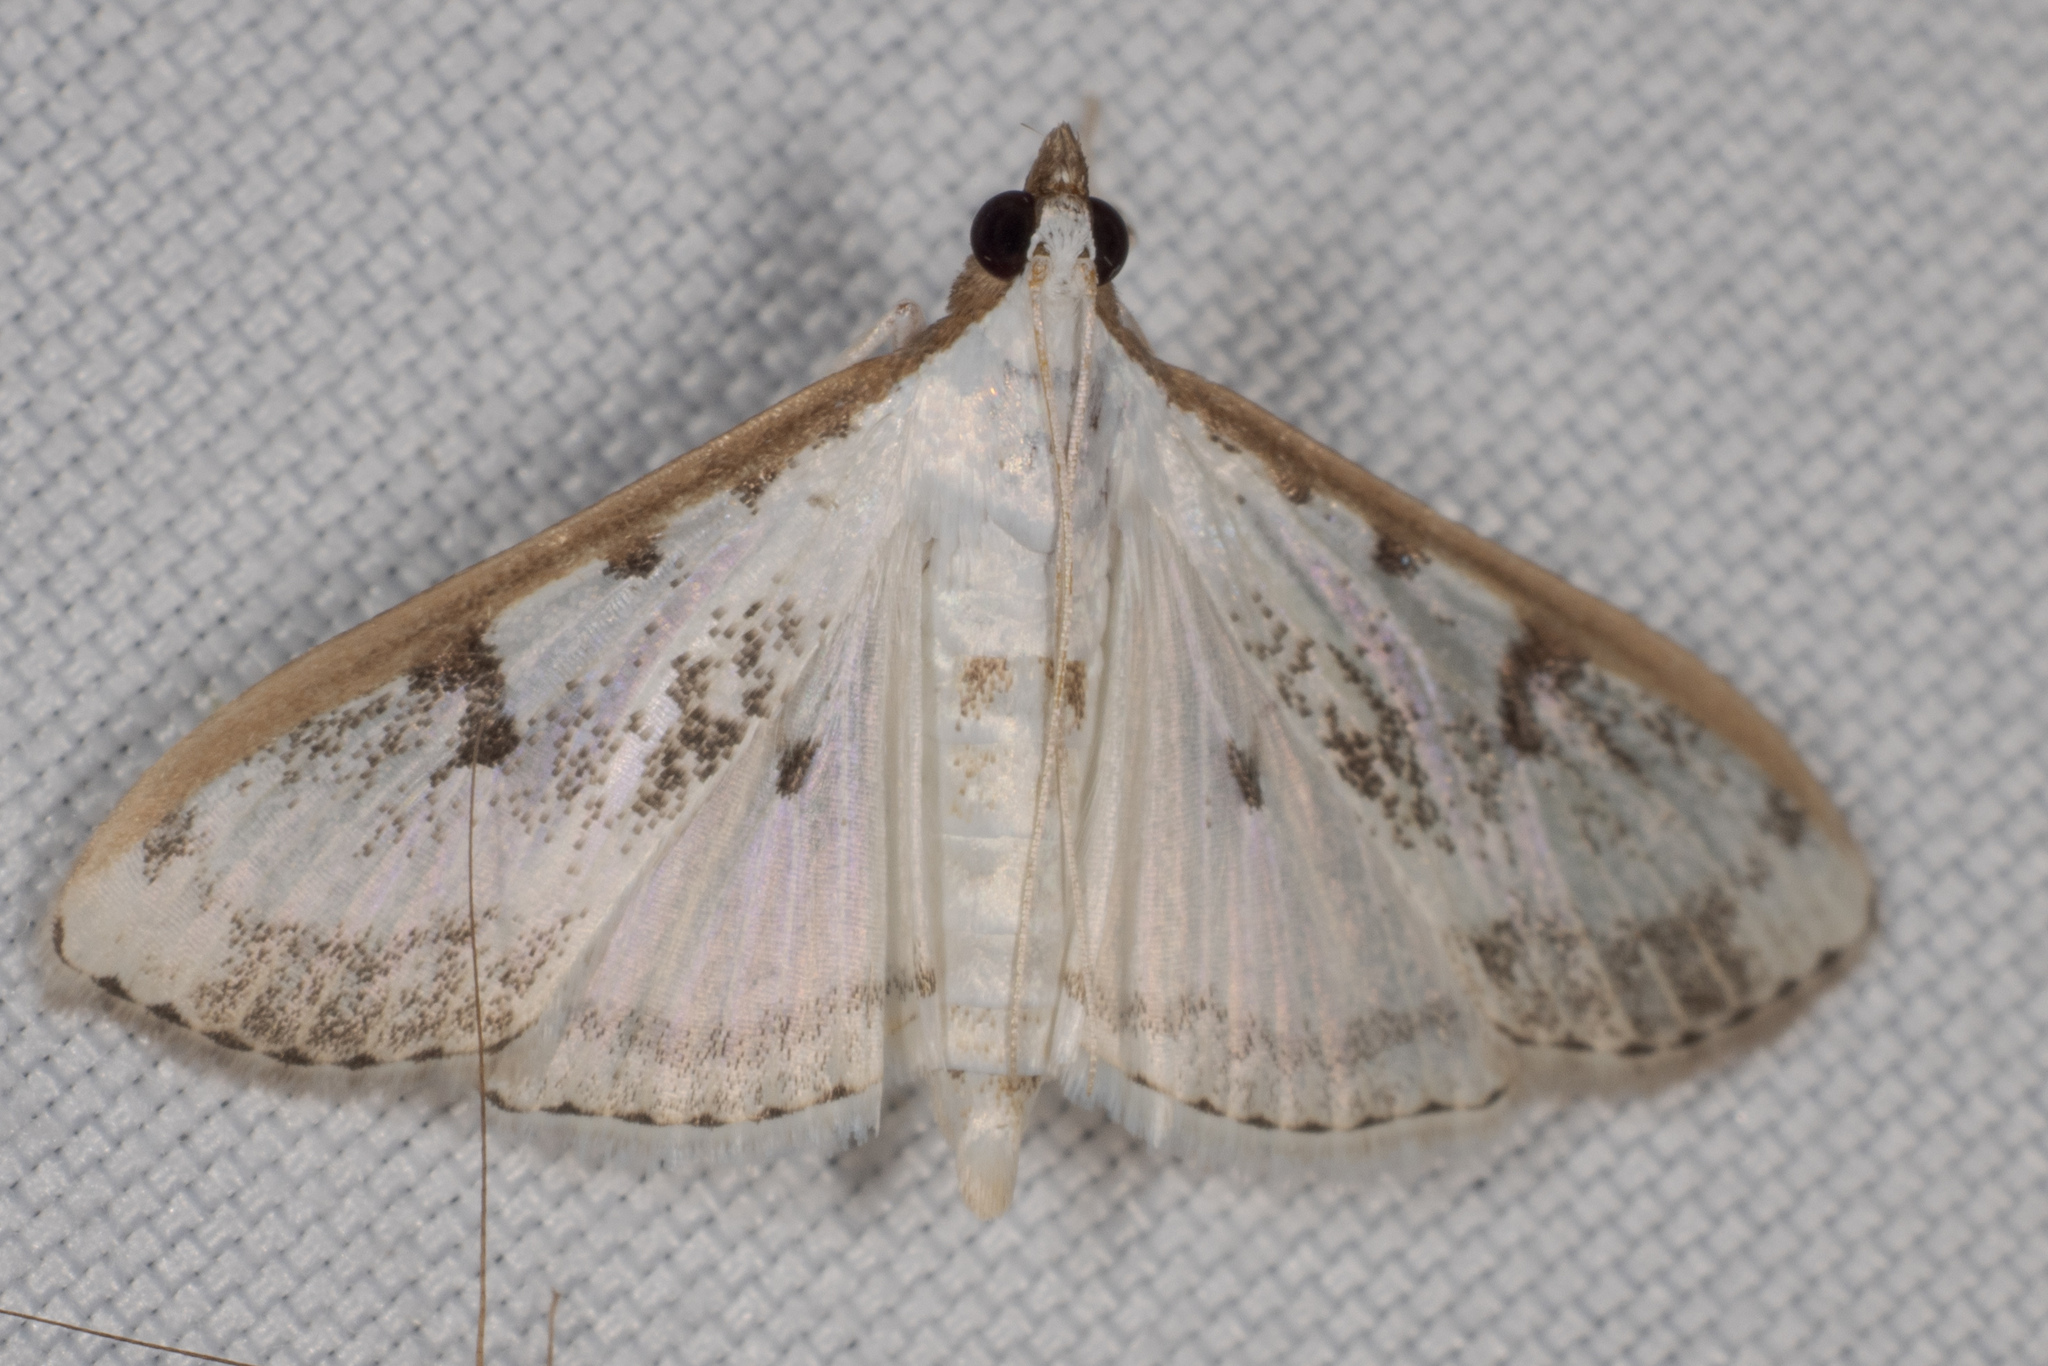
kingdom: Animalia
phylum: Arthropoda
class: Insecta
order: Lepidoptera
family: Crambidae
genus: Palpita
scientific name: Palpita gracilalis
